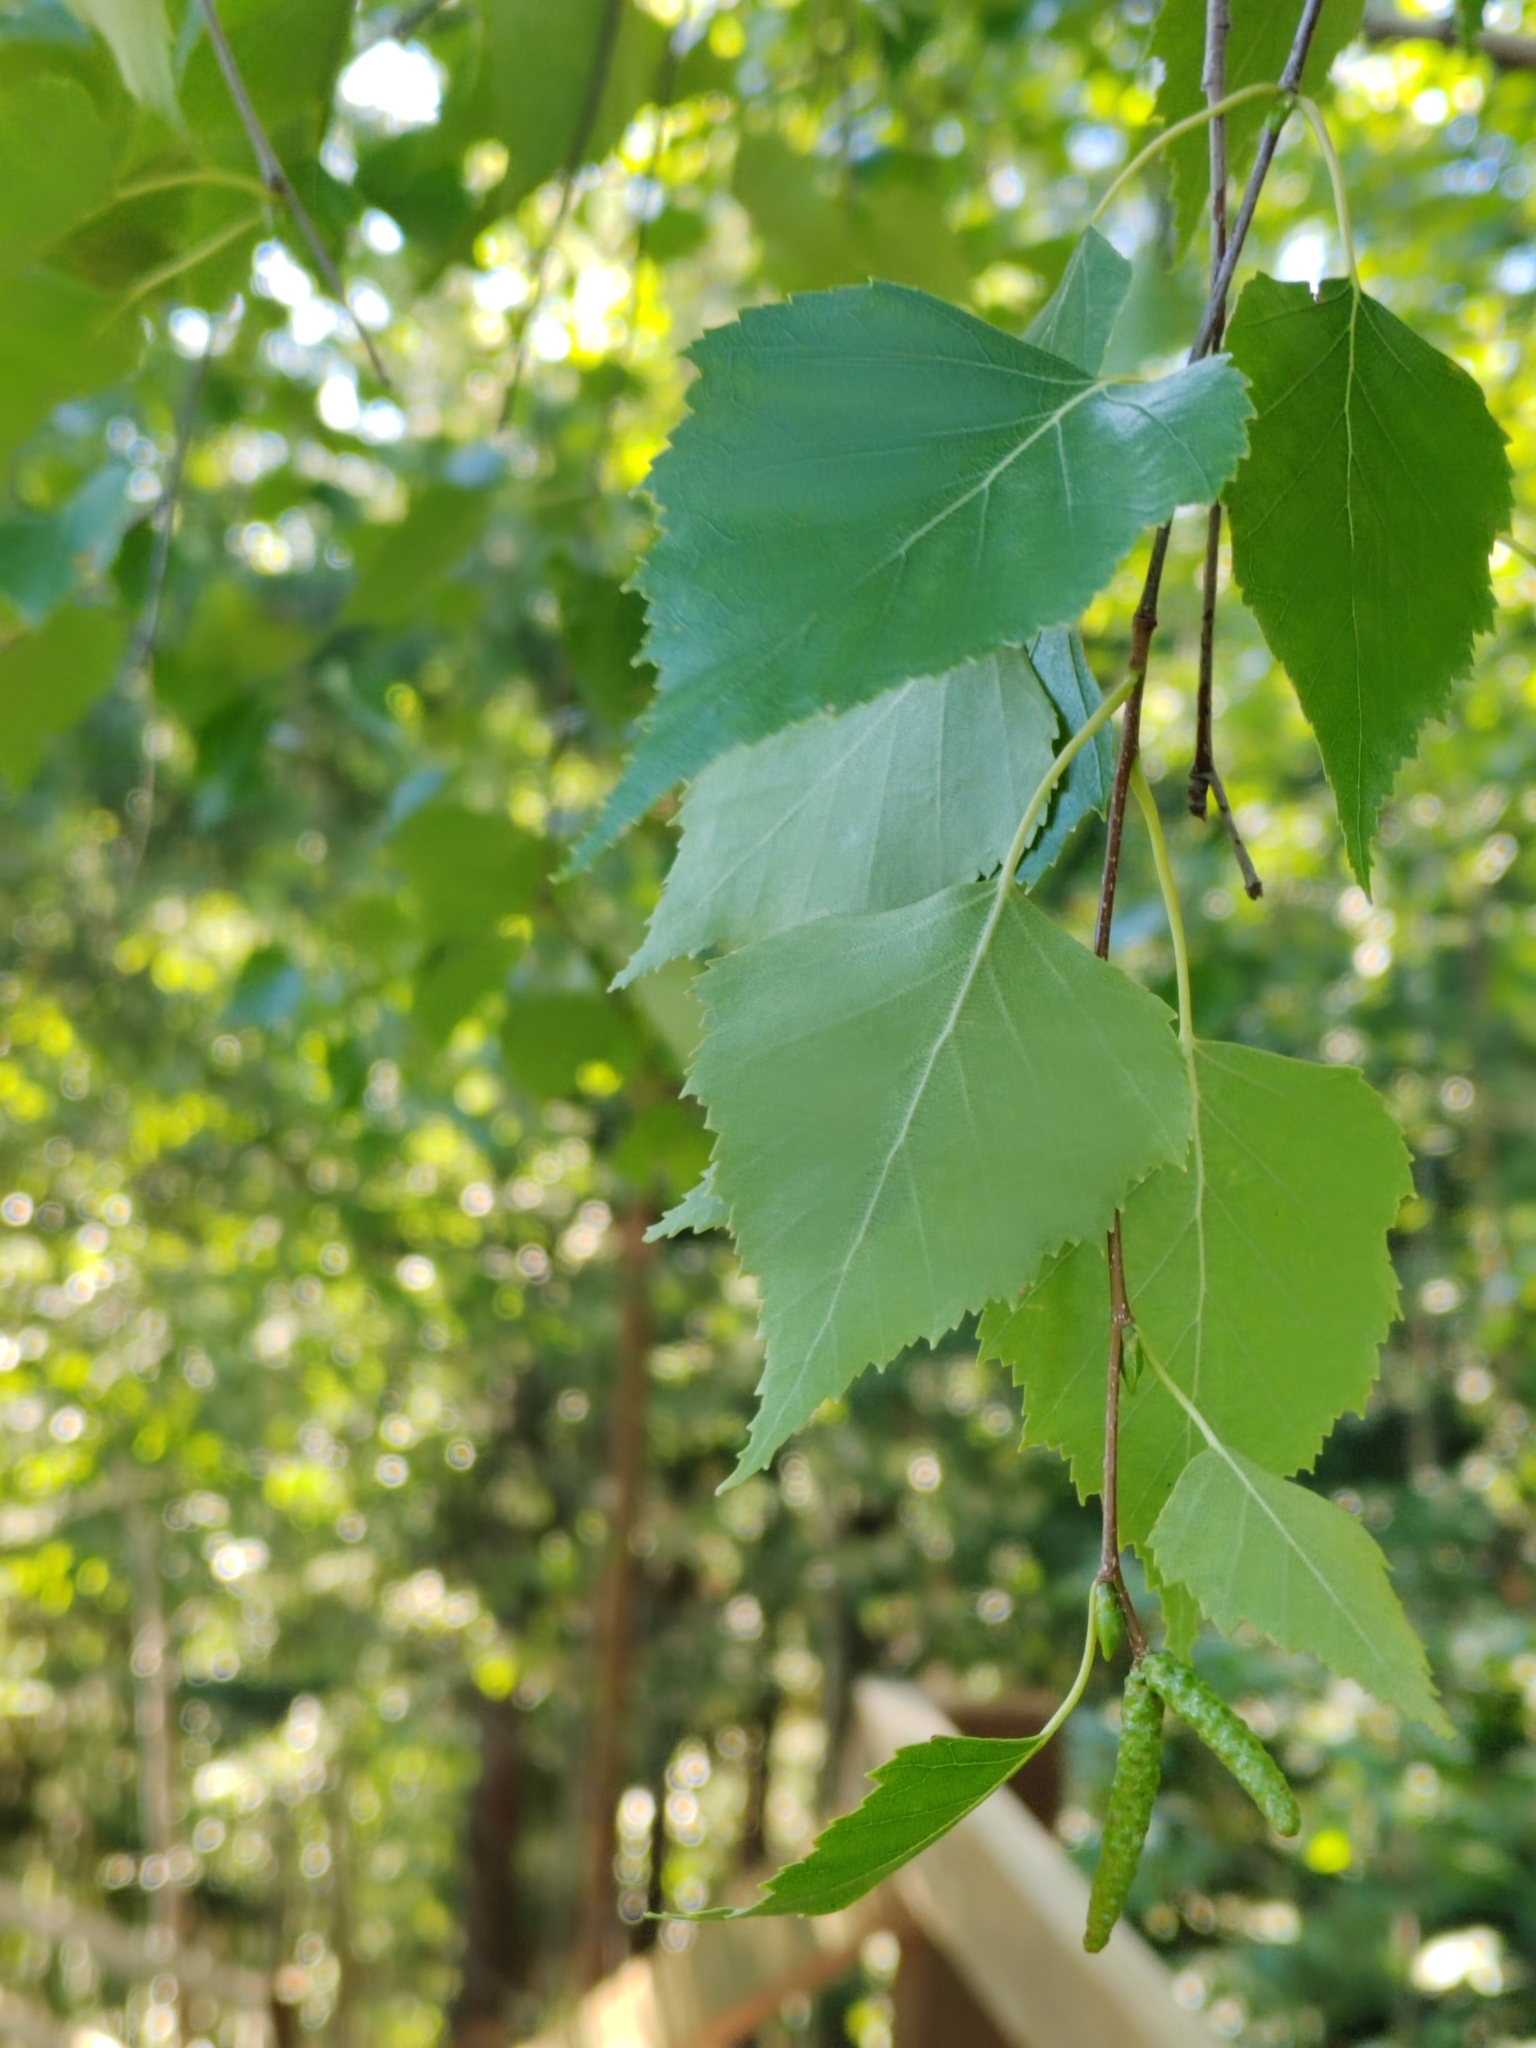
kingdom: Plantae
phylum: Tracheophyta
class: Magnoliopsida
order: Fagales
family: Betulaceae
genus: Betula
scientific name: Betula pendula
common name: Silver birch
